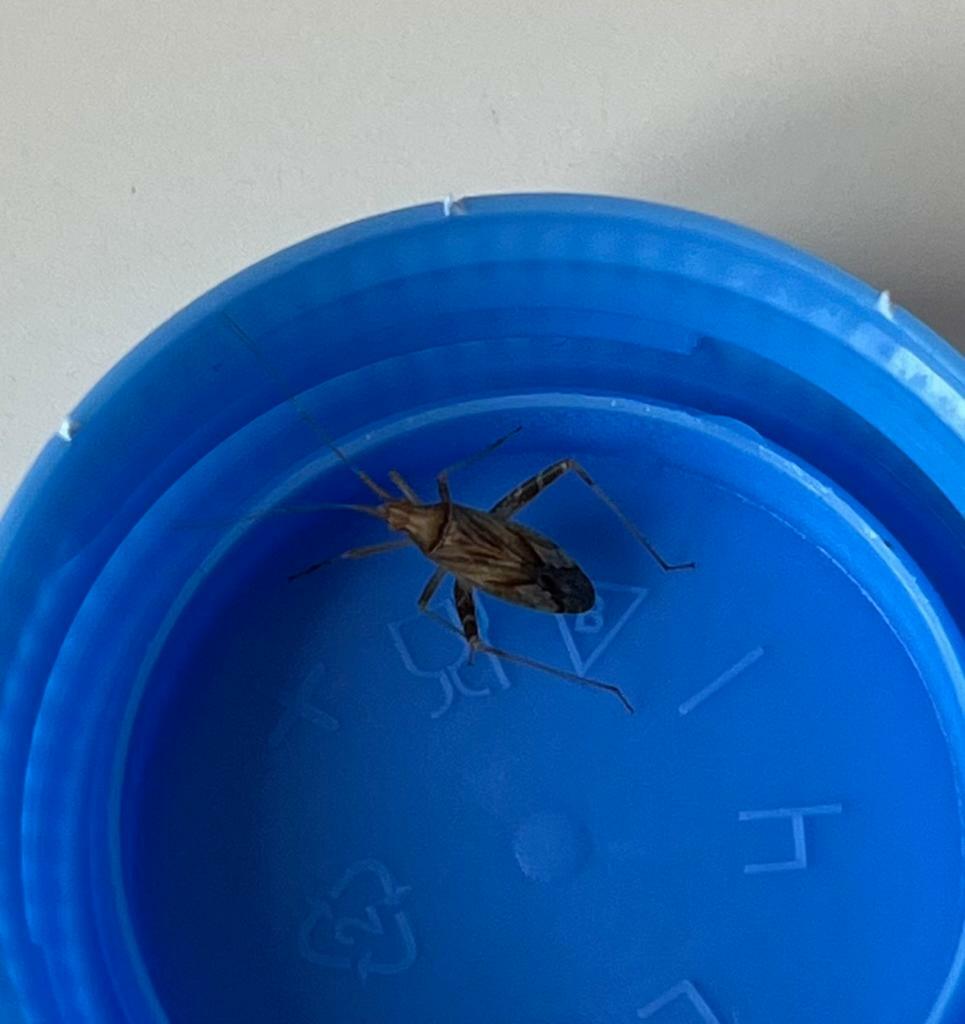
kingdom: Animalia
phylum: Arthropoda
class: Insecta
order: Hemiptera
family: Miridae
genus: Phytocoris
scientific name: Phytocoris
